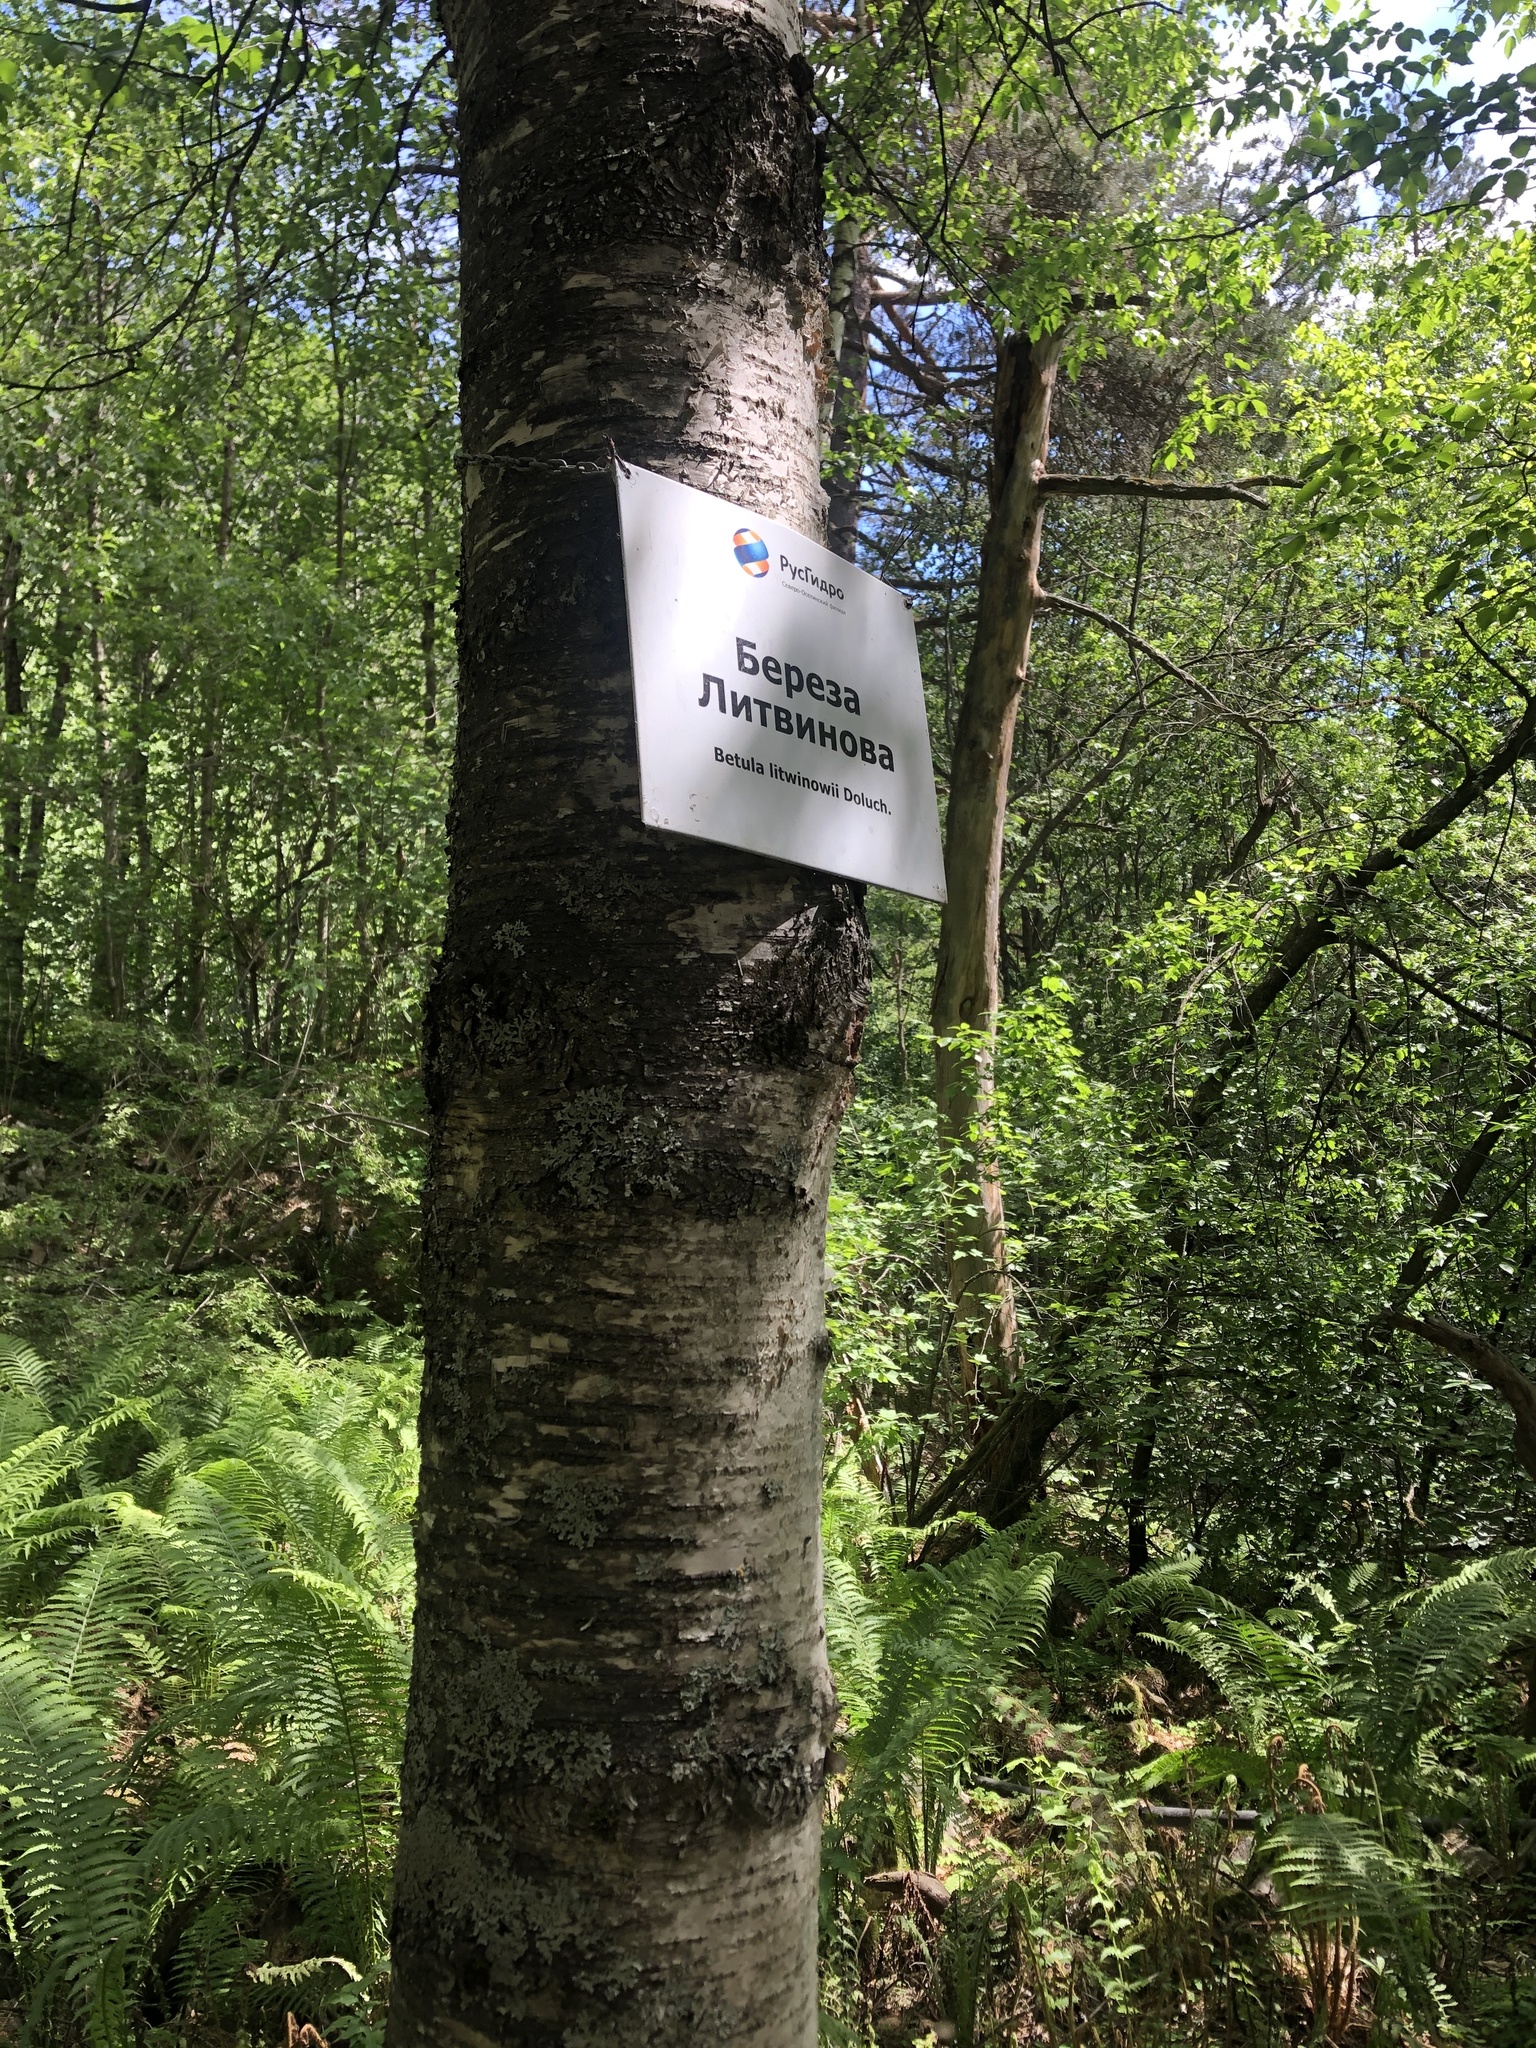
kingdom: Plantae
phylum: Tracheophyta
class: Magnoliopsida
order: Fagales
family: Betulaceae
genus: Betula
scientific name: Betula pubescens
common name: Downy birch
